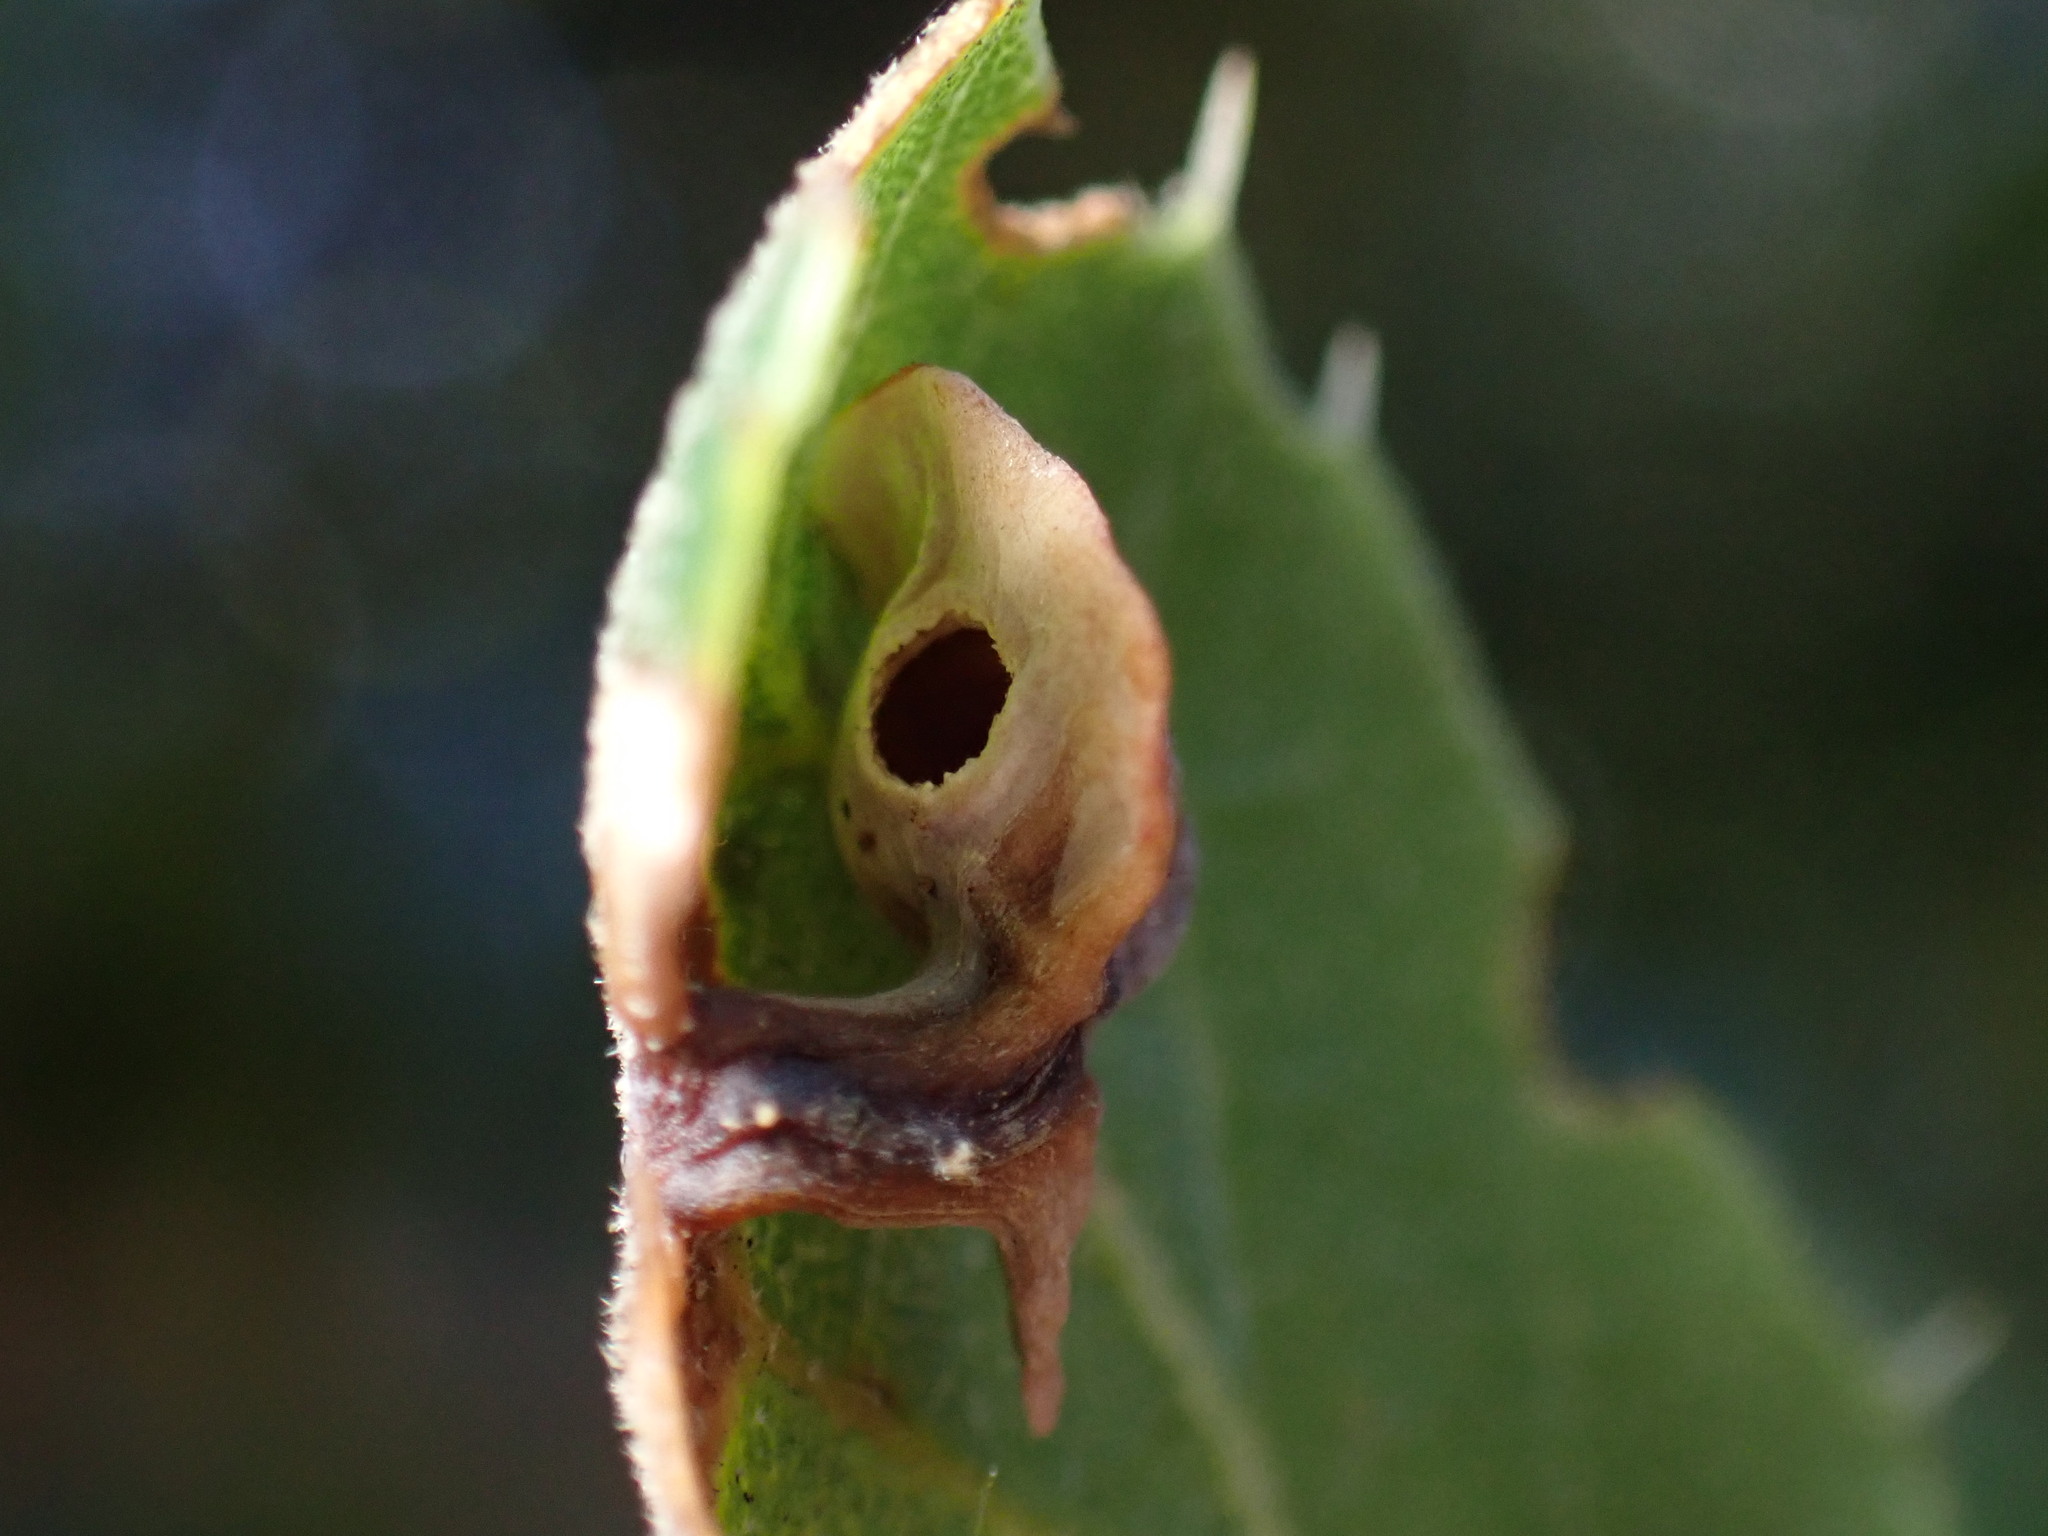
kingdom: Animalia
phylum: Arthropoda
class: Insecta
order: Hymenoptera
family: Cynipidae
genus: Amphibolips
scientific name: Amphibolips quercuspomiformis
